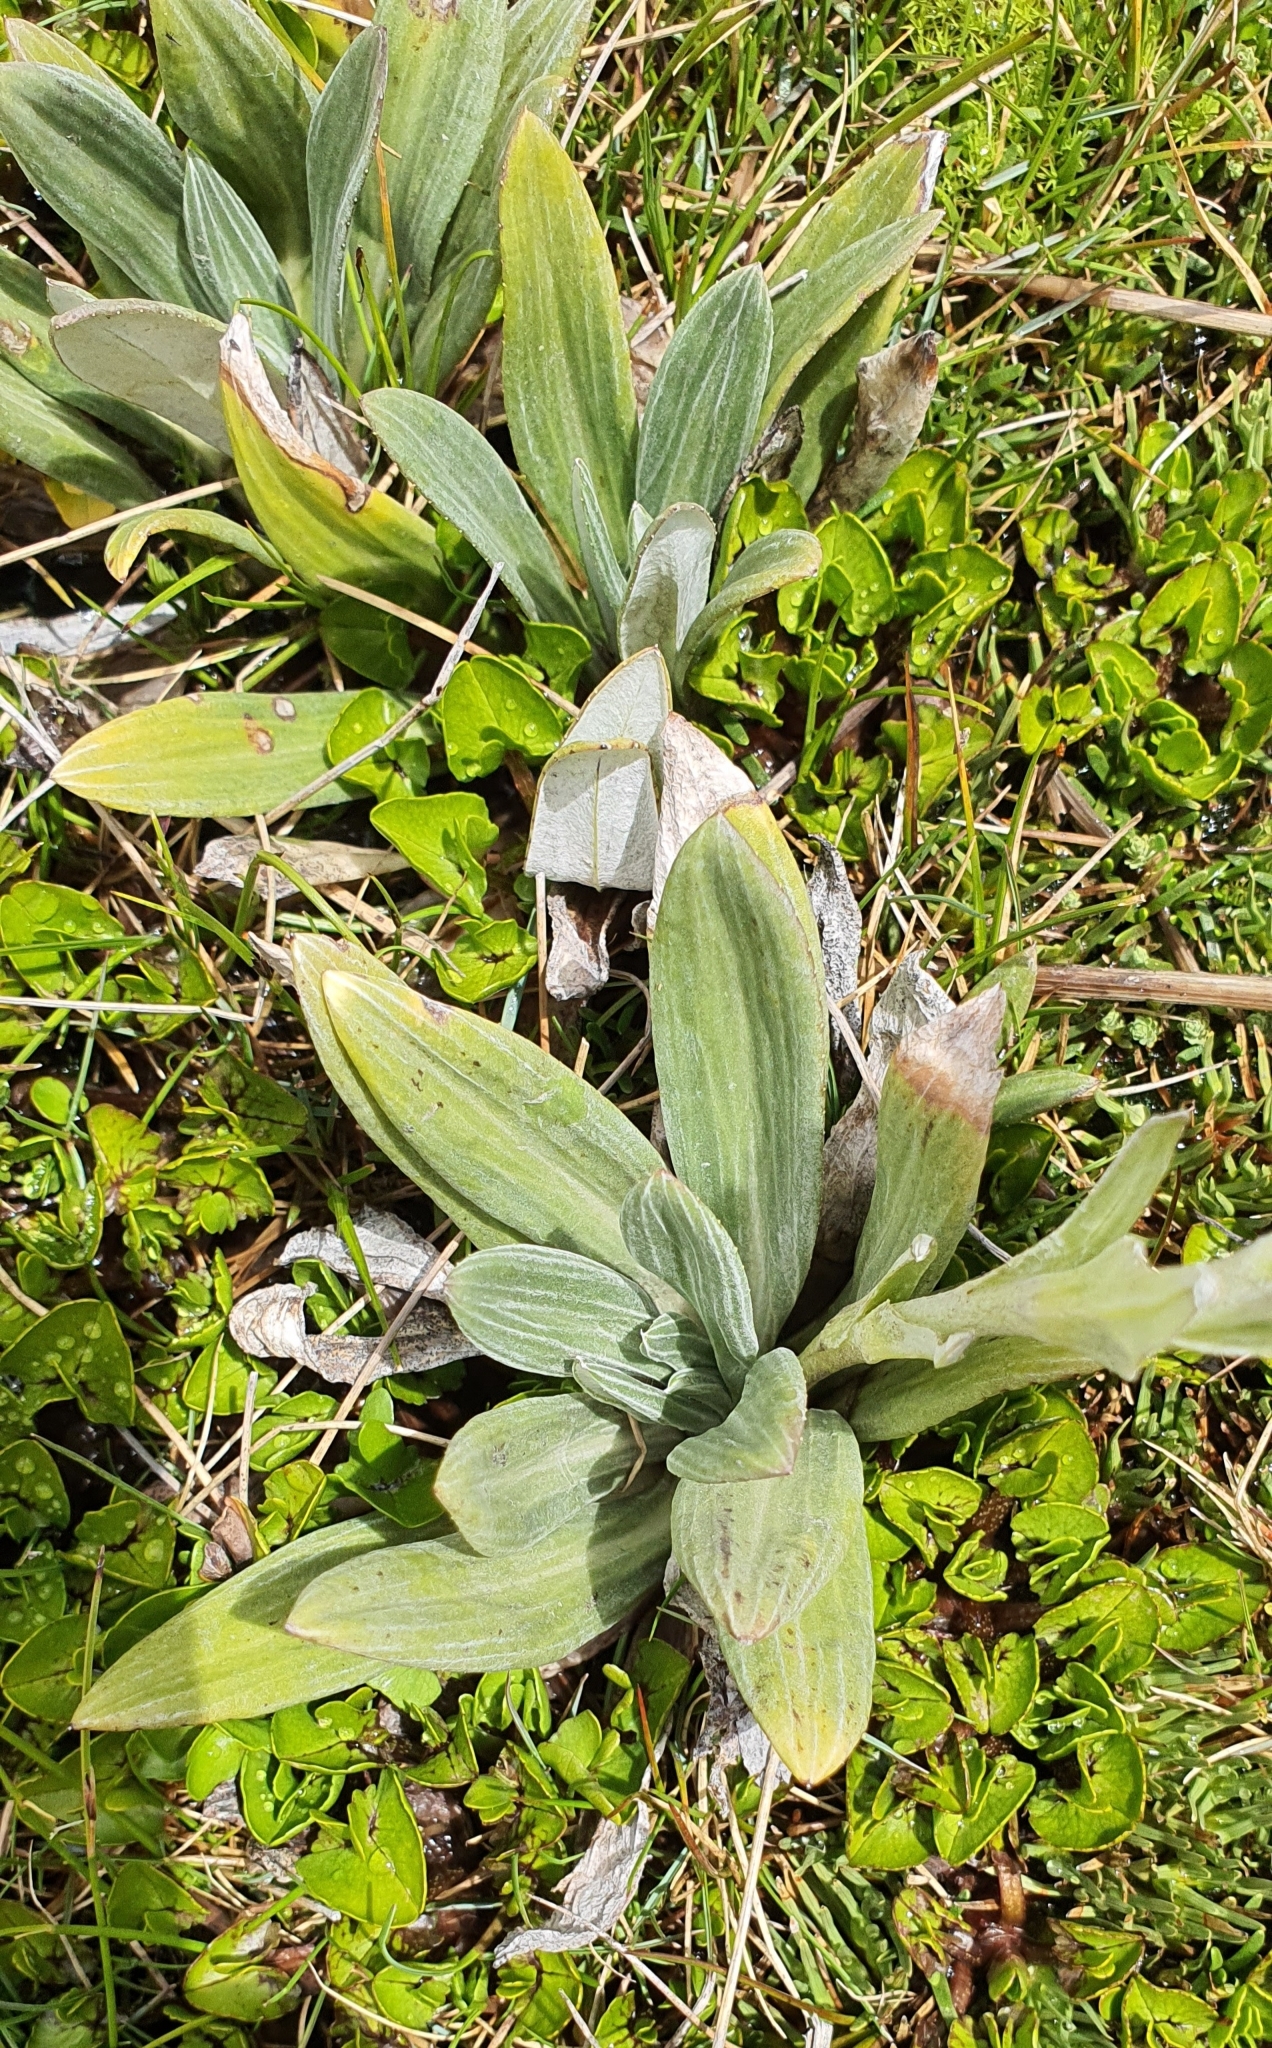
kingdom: Plantae
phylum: Tracheophyta
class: Magnoliopsida
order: Asterales
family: Asteraceae
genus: Celmisia
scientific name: Celmisia haastii
